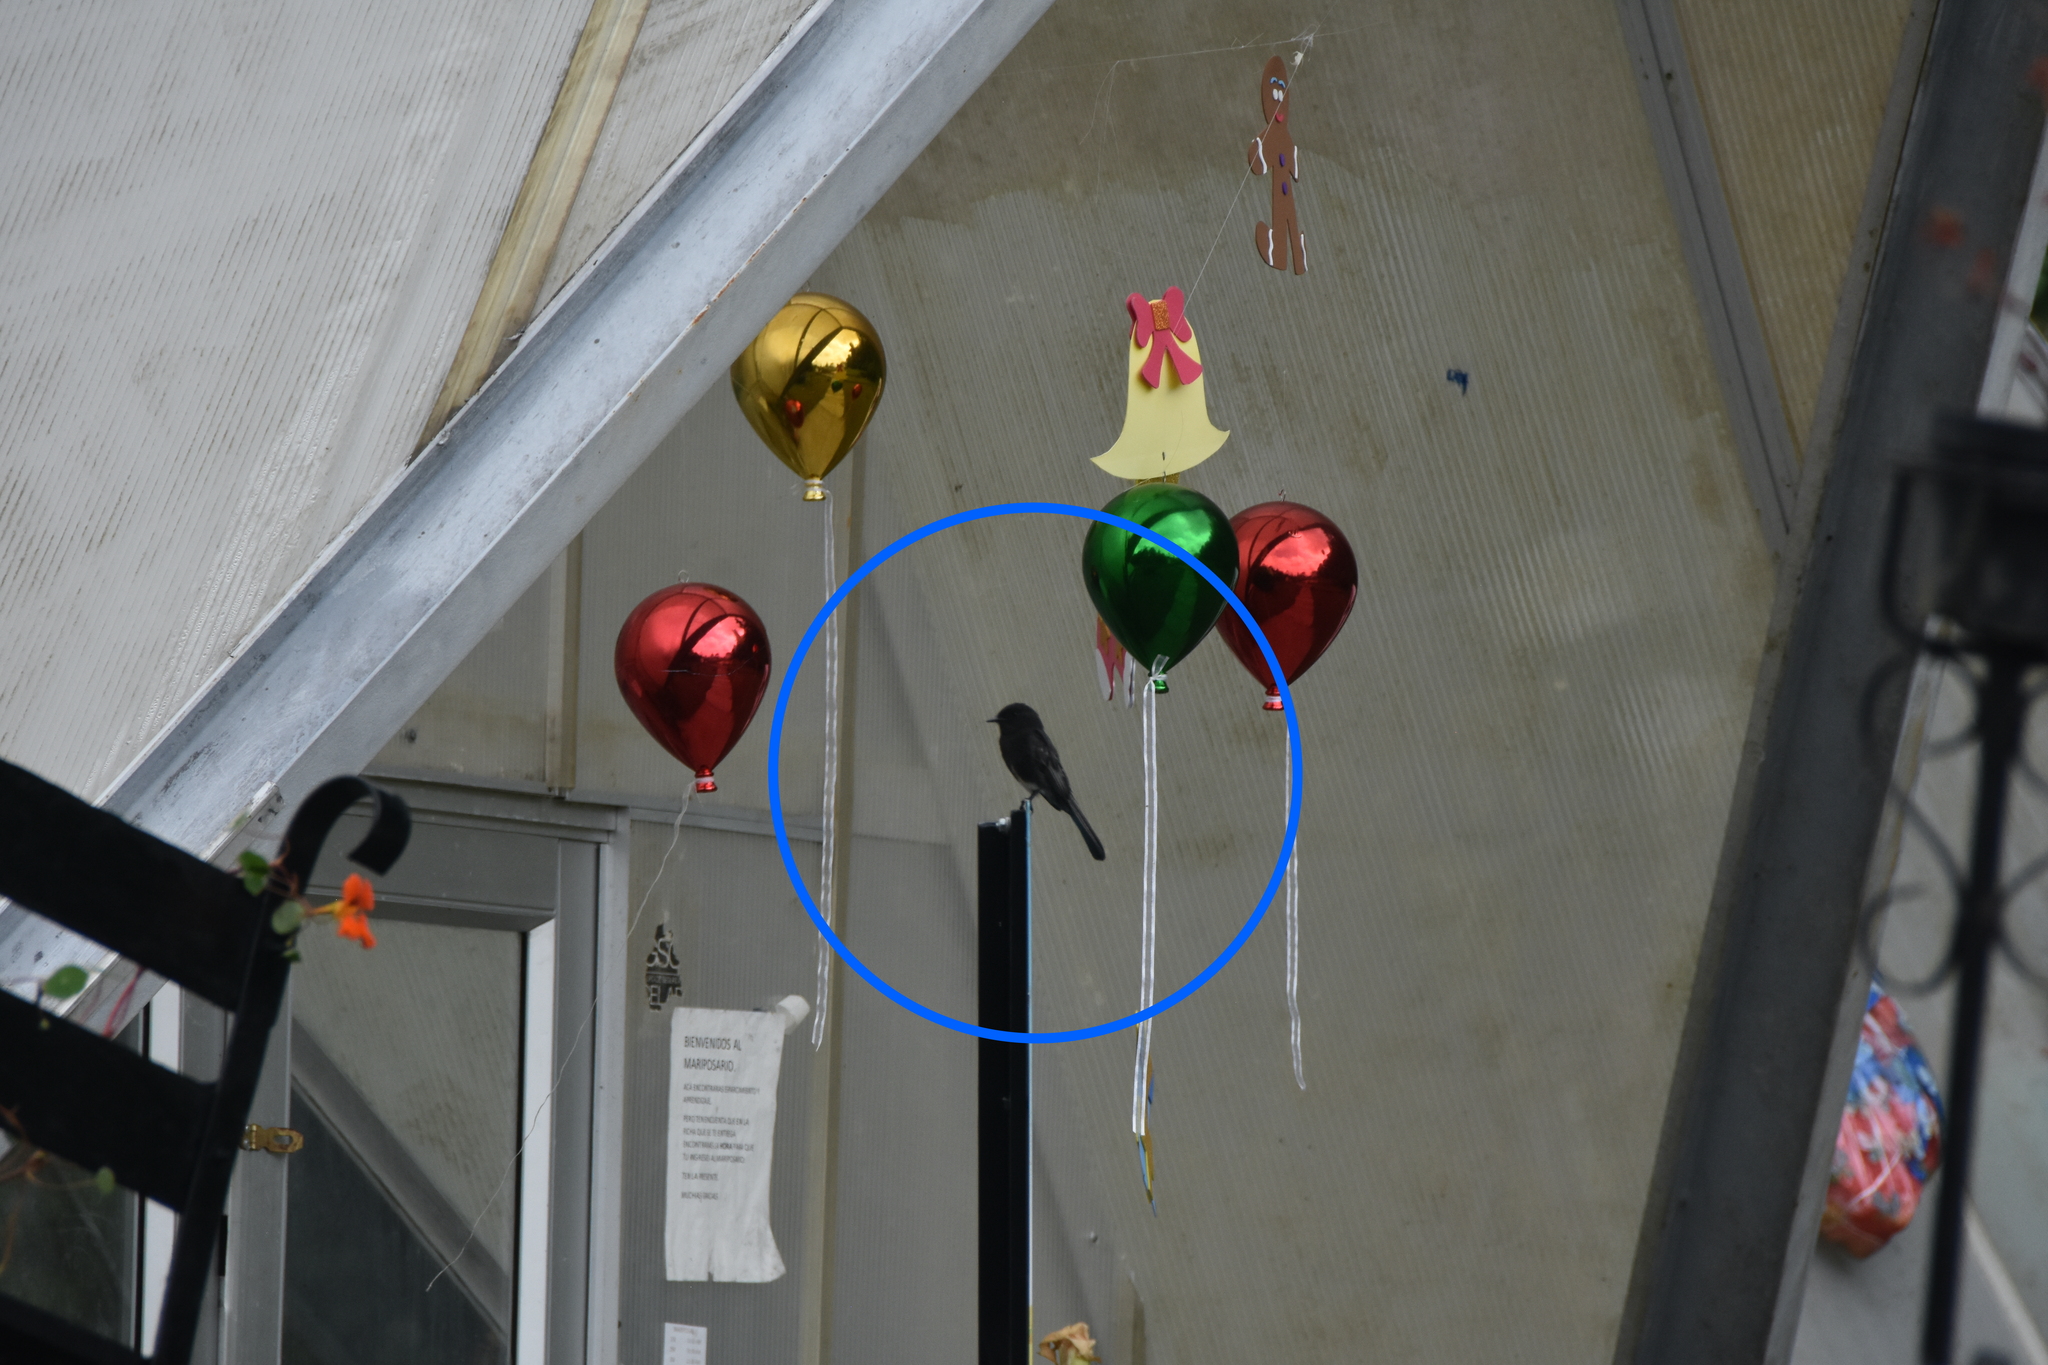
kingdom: Animalia
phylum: Chordata
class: Aves
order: Passeriformes
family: Tyrannidae
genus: Sayornis
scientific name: Sayornis nigricans
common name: Black phoebe
